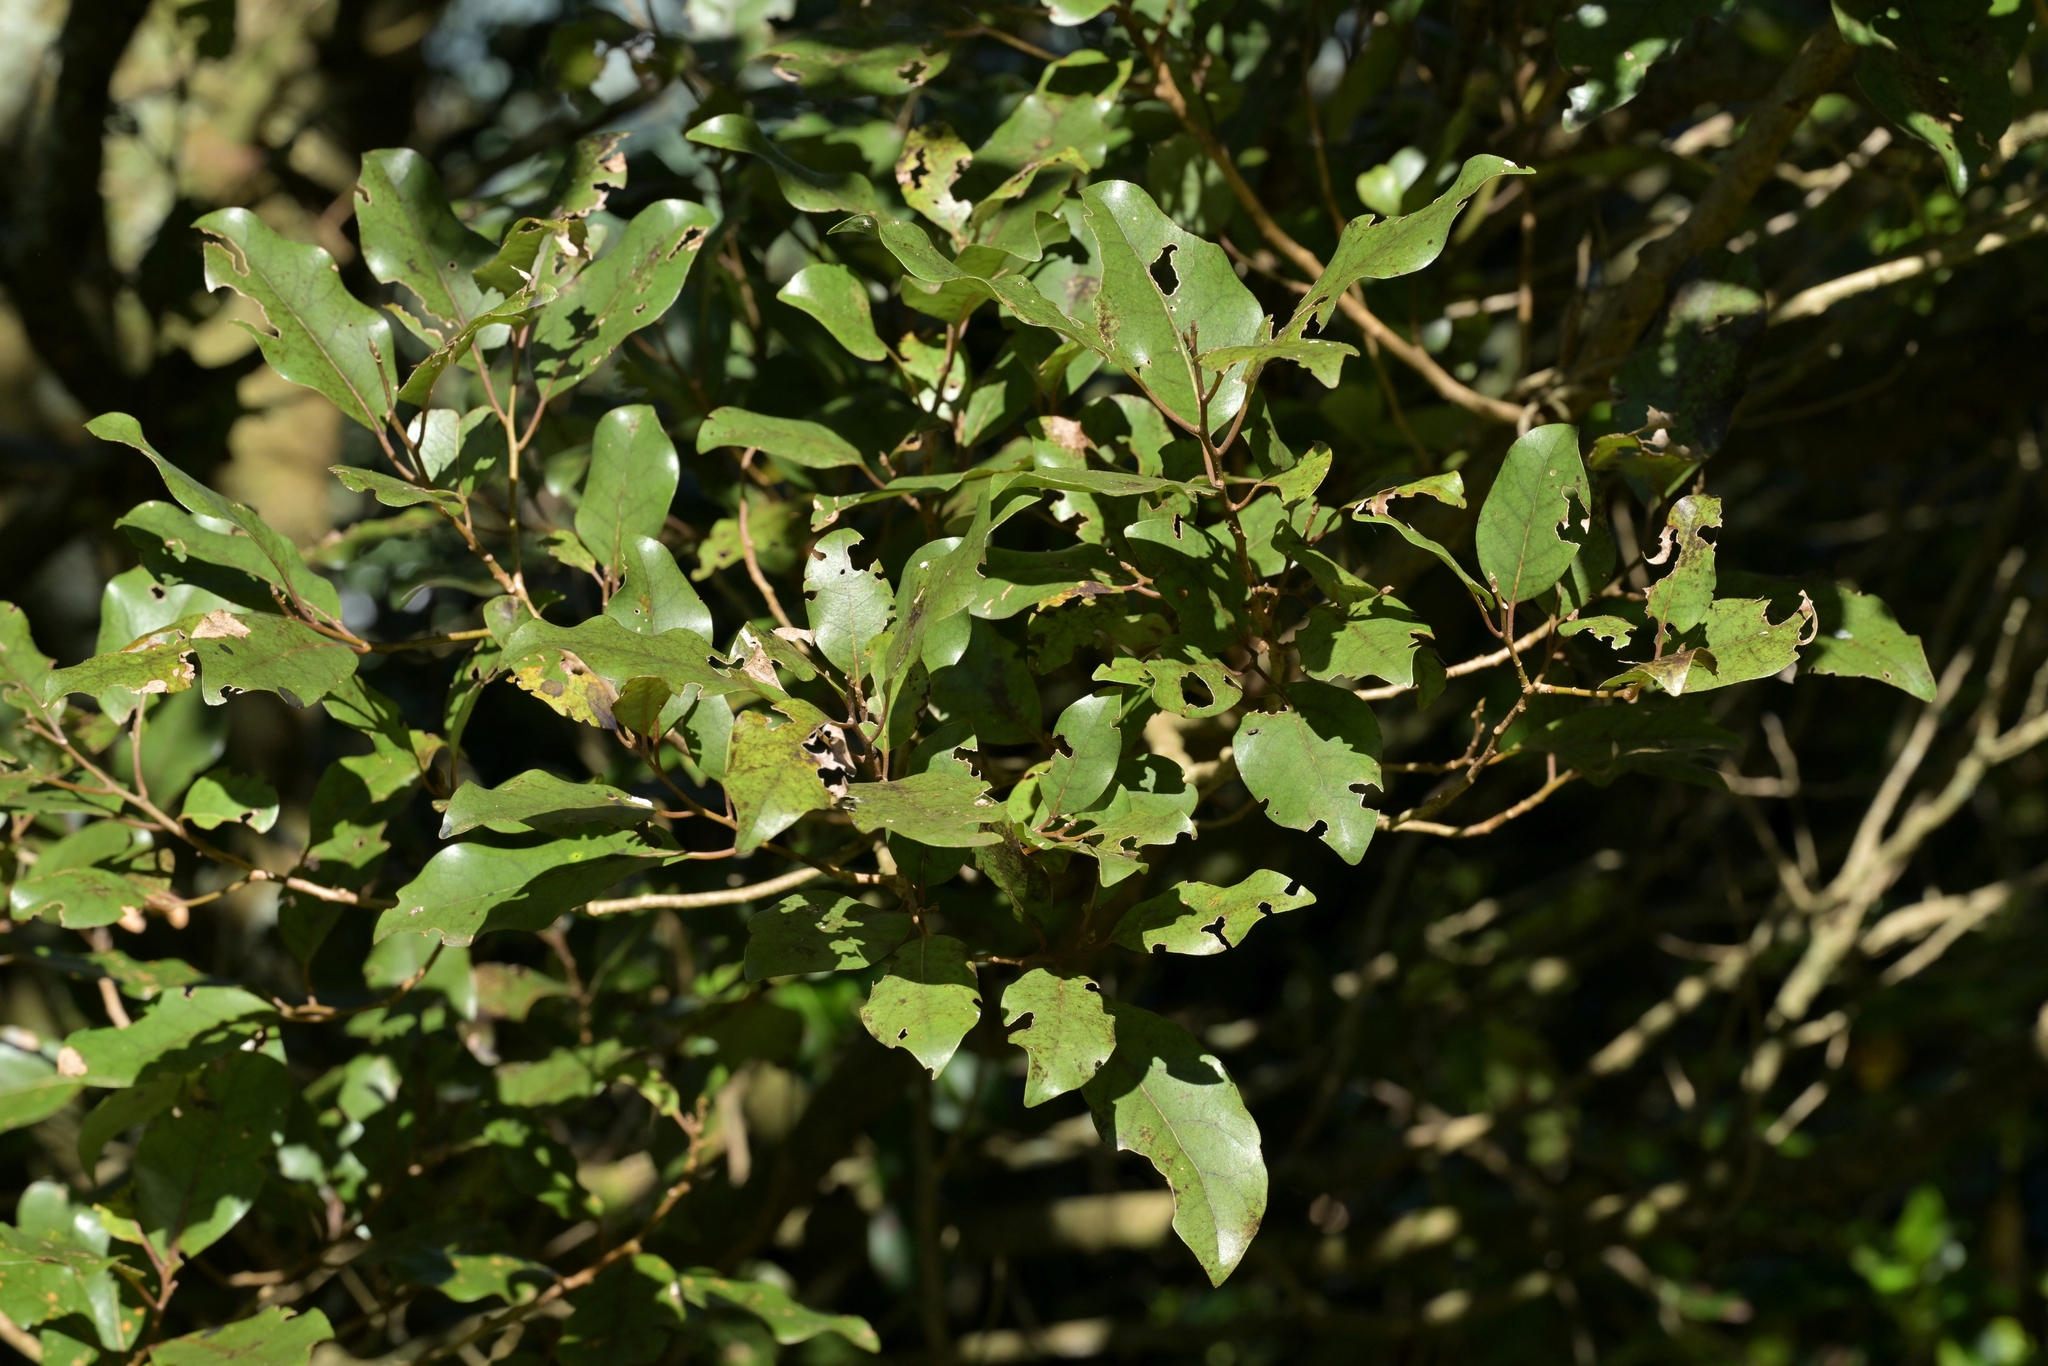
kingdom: Plantae
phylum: Tracheophyta
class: Magnoliopsida
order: Asterales
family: Asteraceae
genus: Olearia
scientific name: Olearia furfuracea
